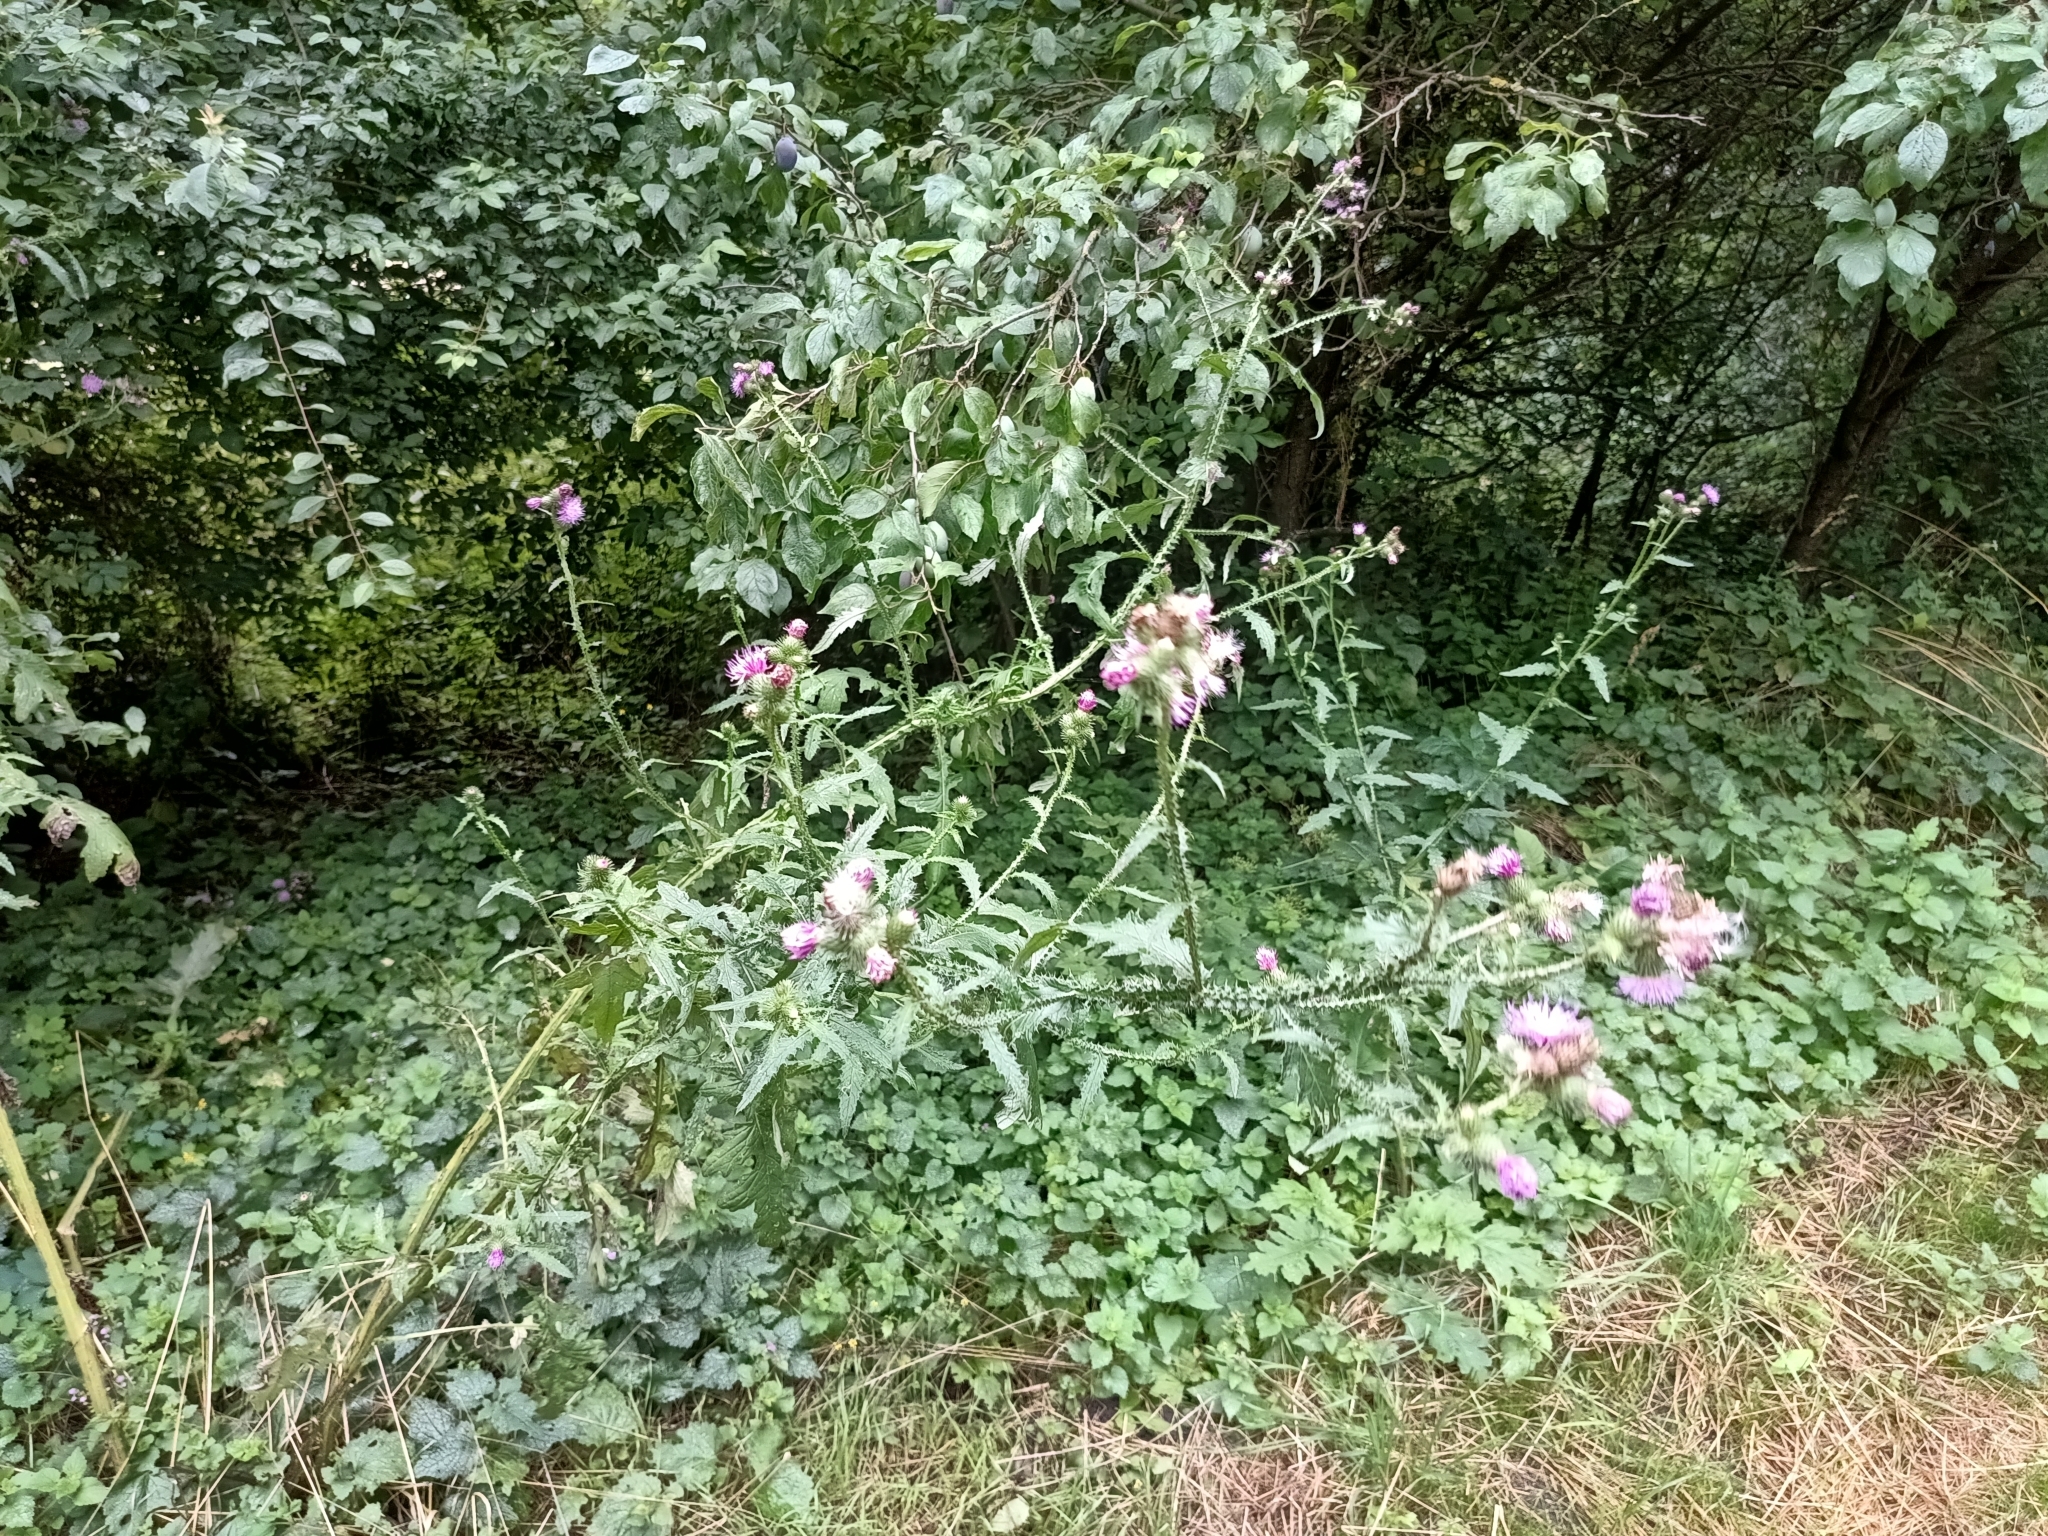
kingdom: Plantae
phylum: Tracheophyta
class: Magnoliopsida
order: Asterales
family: Asteraceae
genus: Carduus
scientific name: Carduus crispus
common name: Welted thistle
